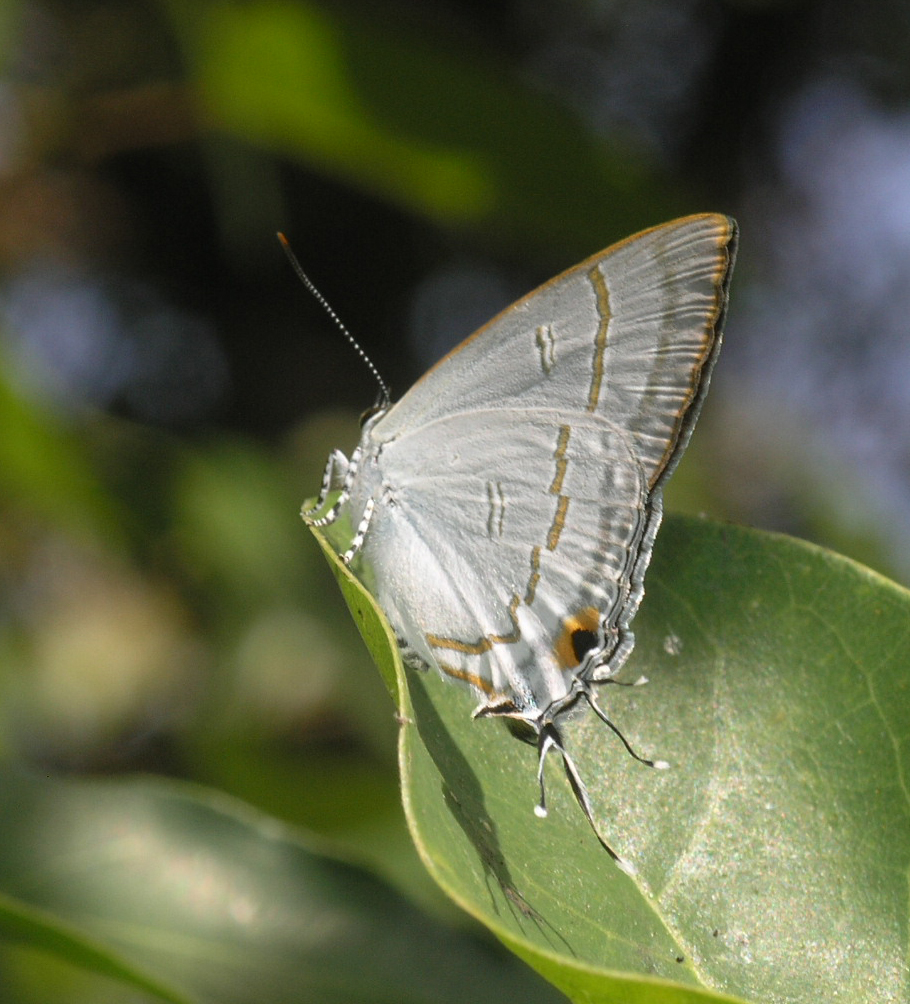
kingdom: Animalia
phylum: Arthropoda
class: Insecta
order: Lepidoptera
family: Lycaenidae
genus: Hypolycaena
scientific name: Hypolycaena erylus
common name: Common tit
